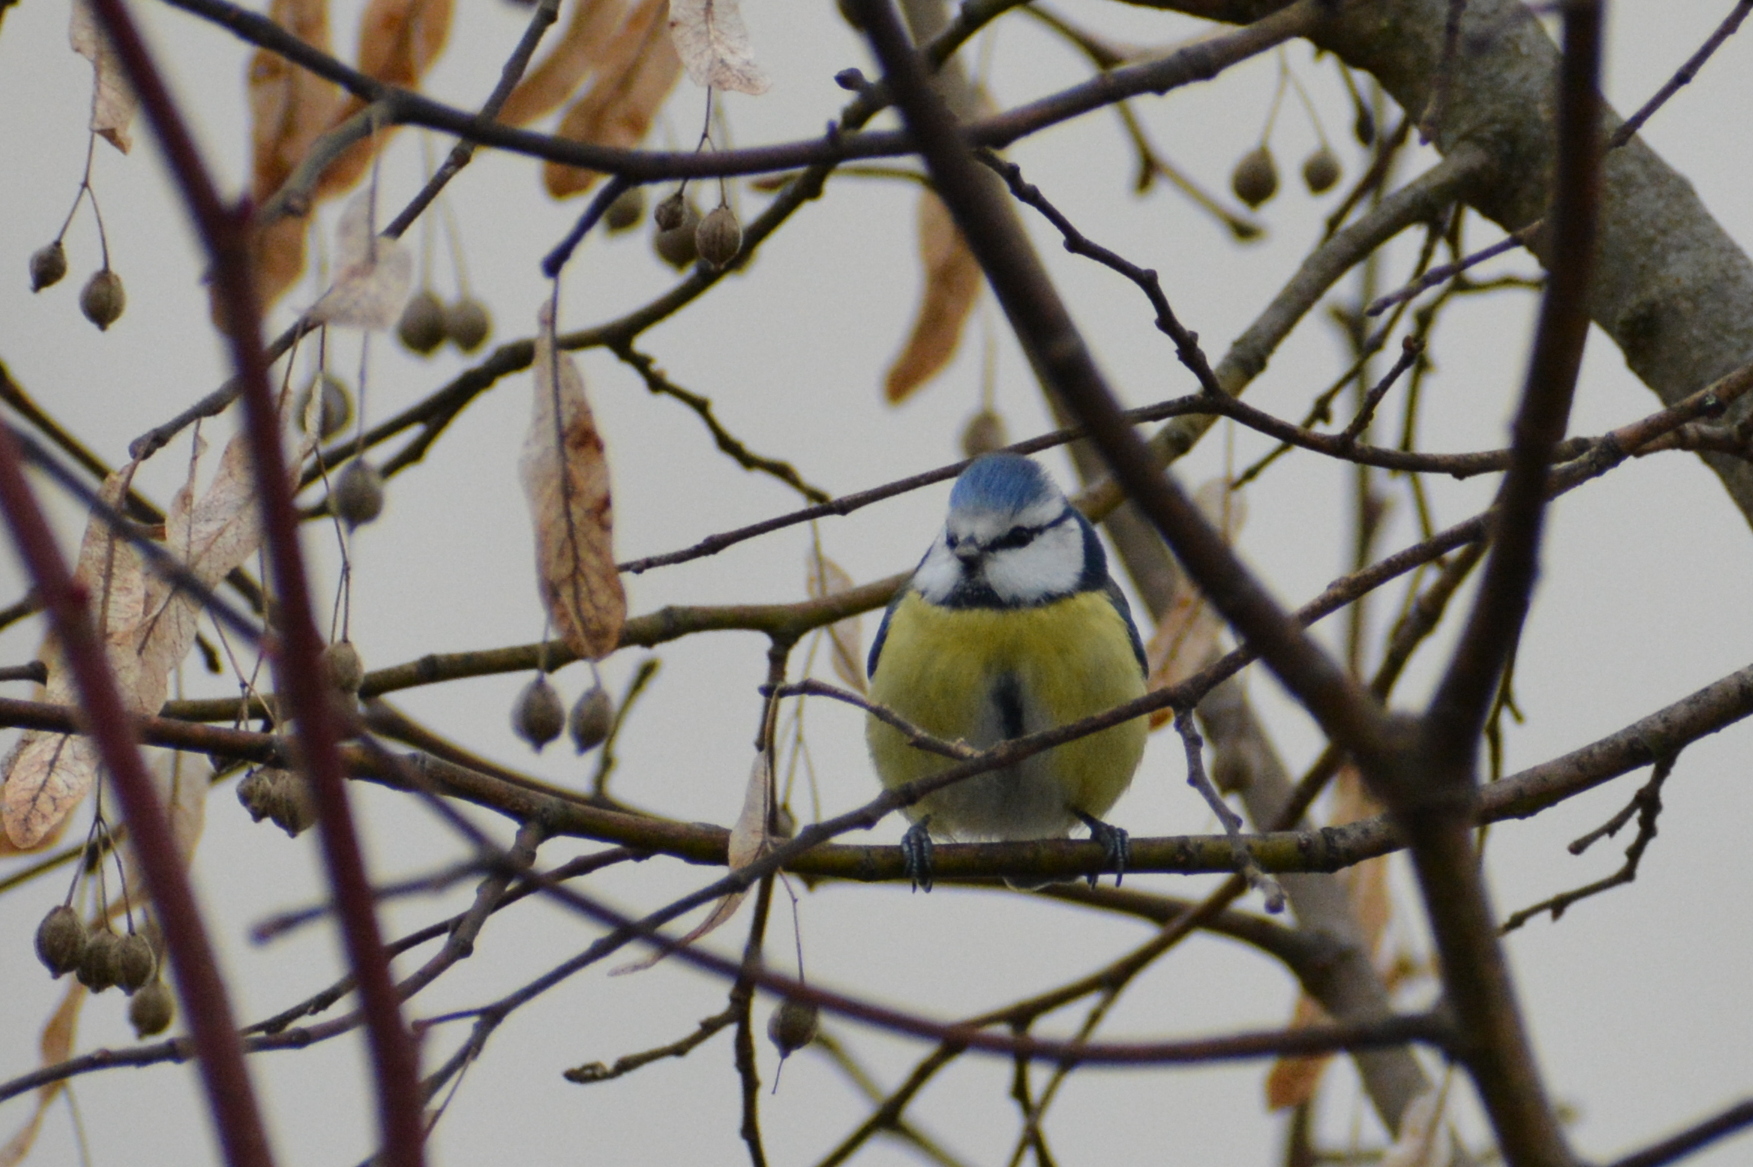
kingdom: Animalia
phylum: Chordata
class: Aves
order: Passeriformes
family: Paridae
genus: Cyanistes
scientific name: Cyanistes caeruleus
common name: Eurasian blue tit
